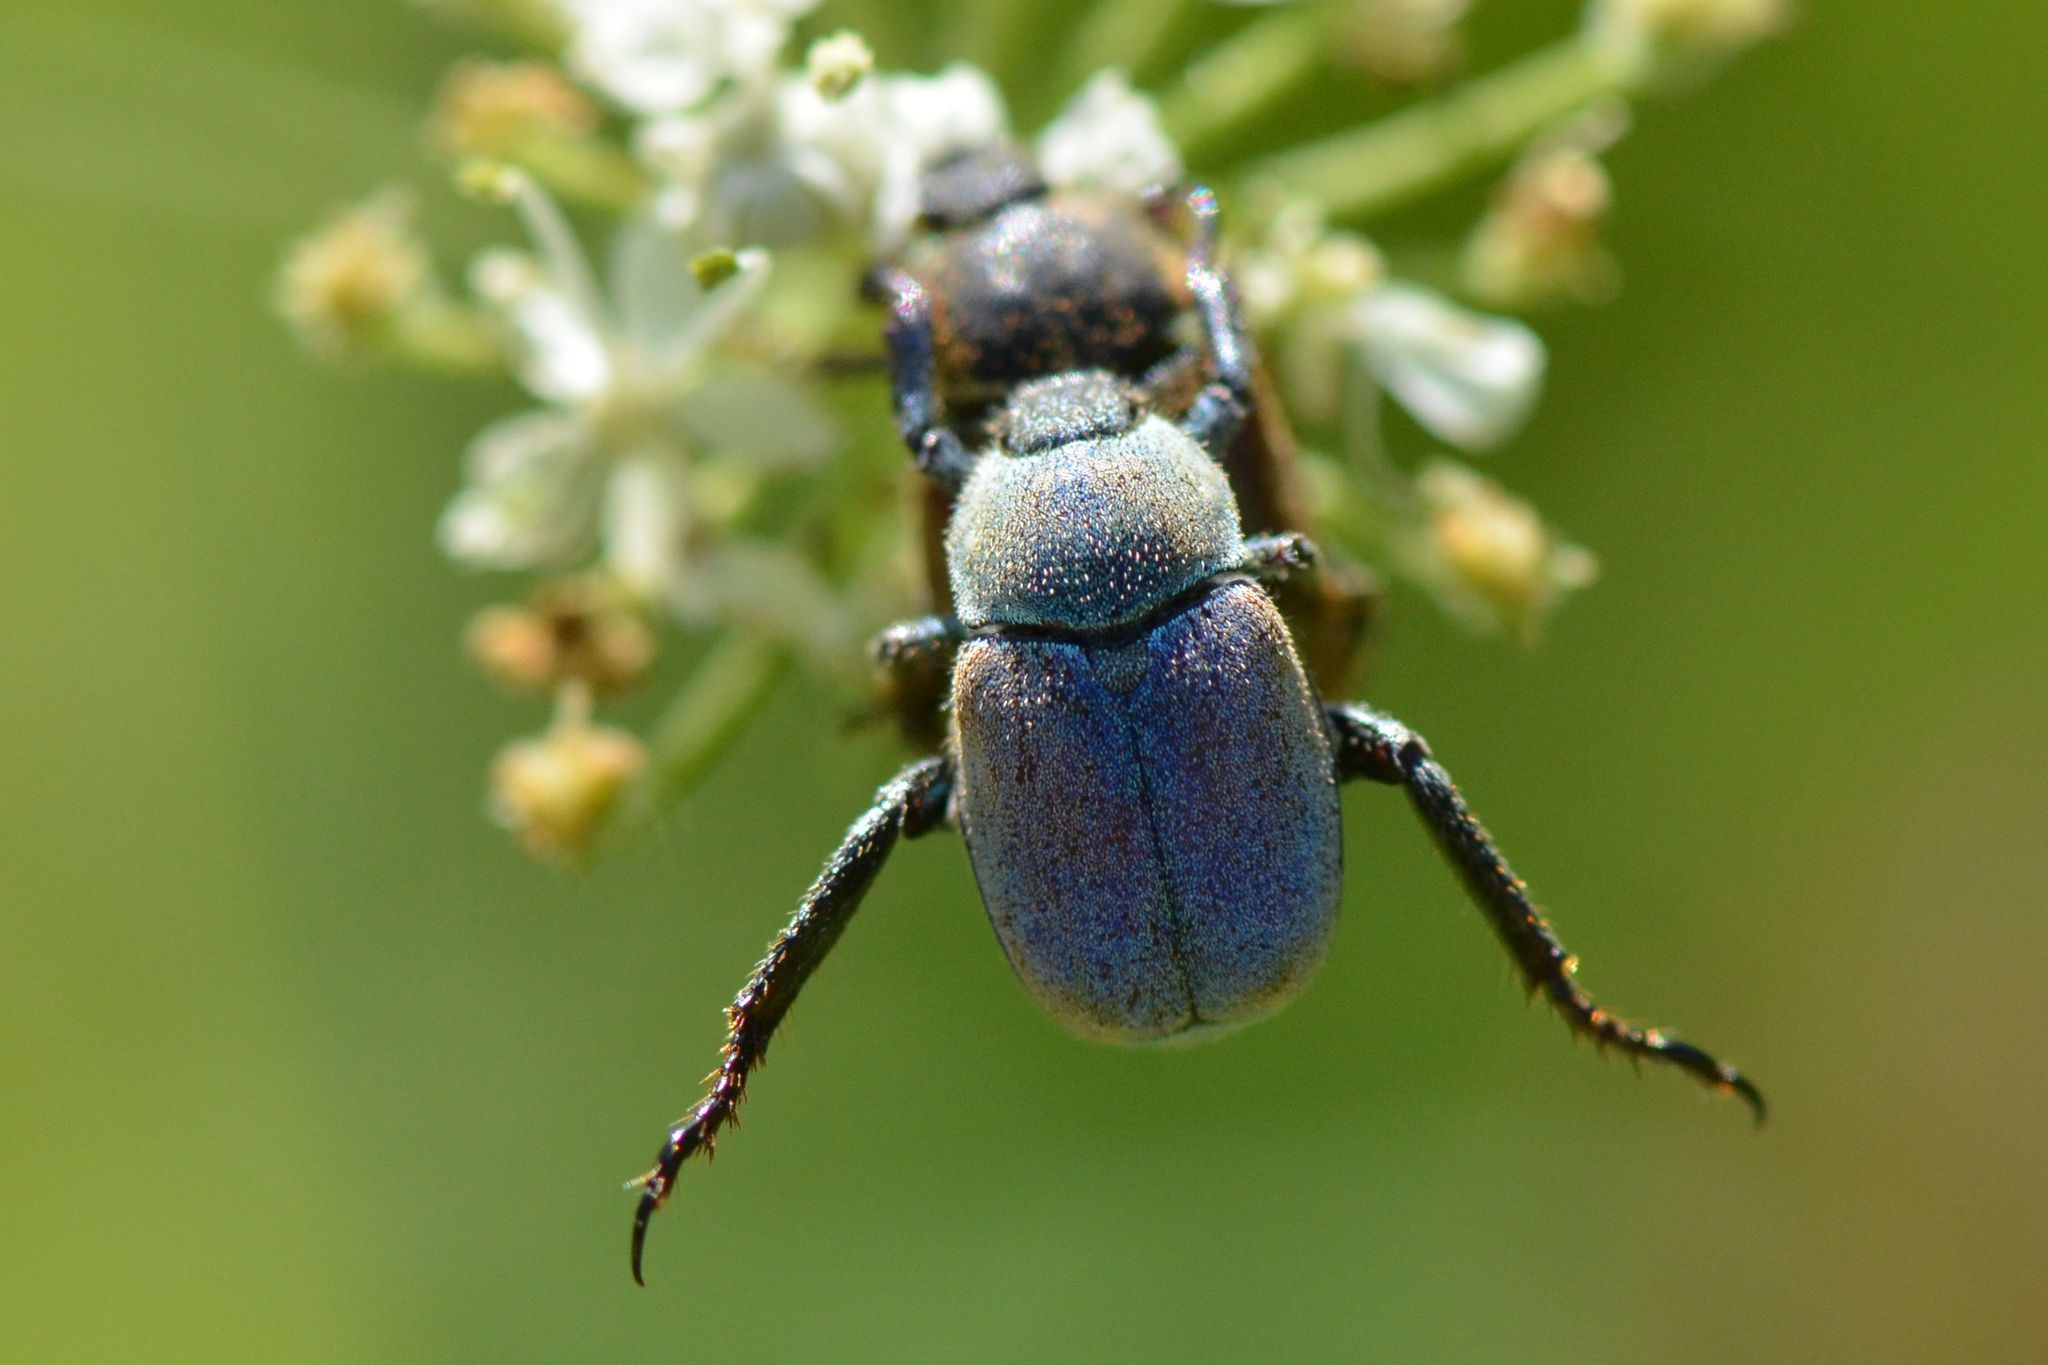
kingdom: Animalia
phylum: Arthropoda
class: Insecta
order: Coleoptera
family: Scarabaeidae
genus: Hoplia
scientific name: Hoplia argentea
